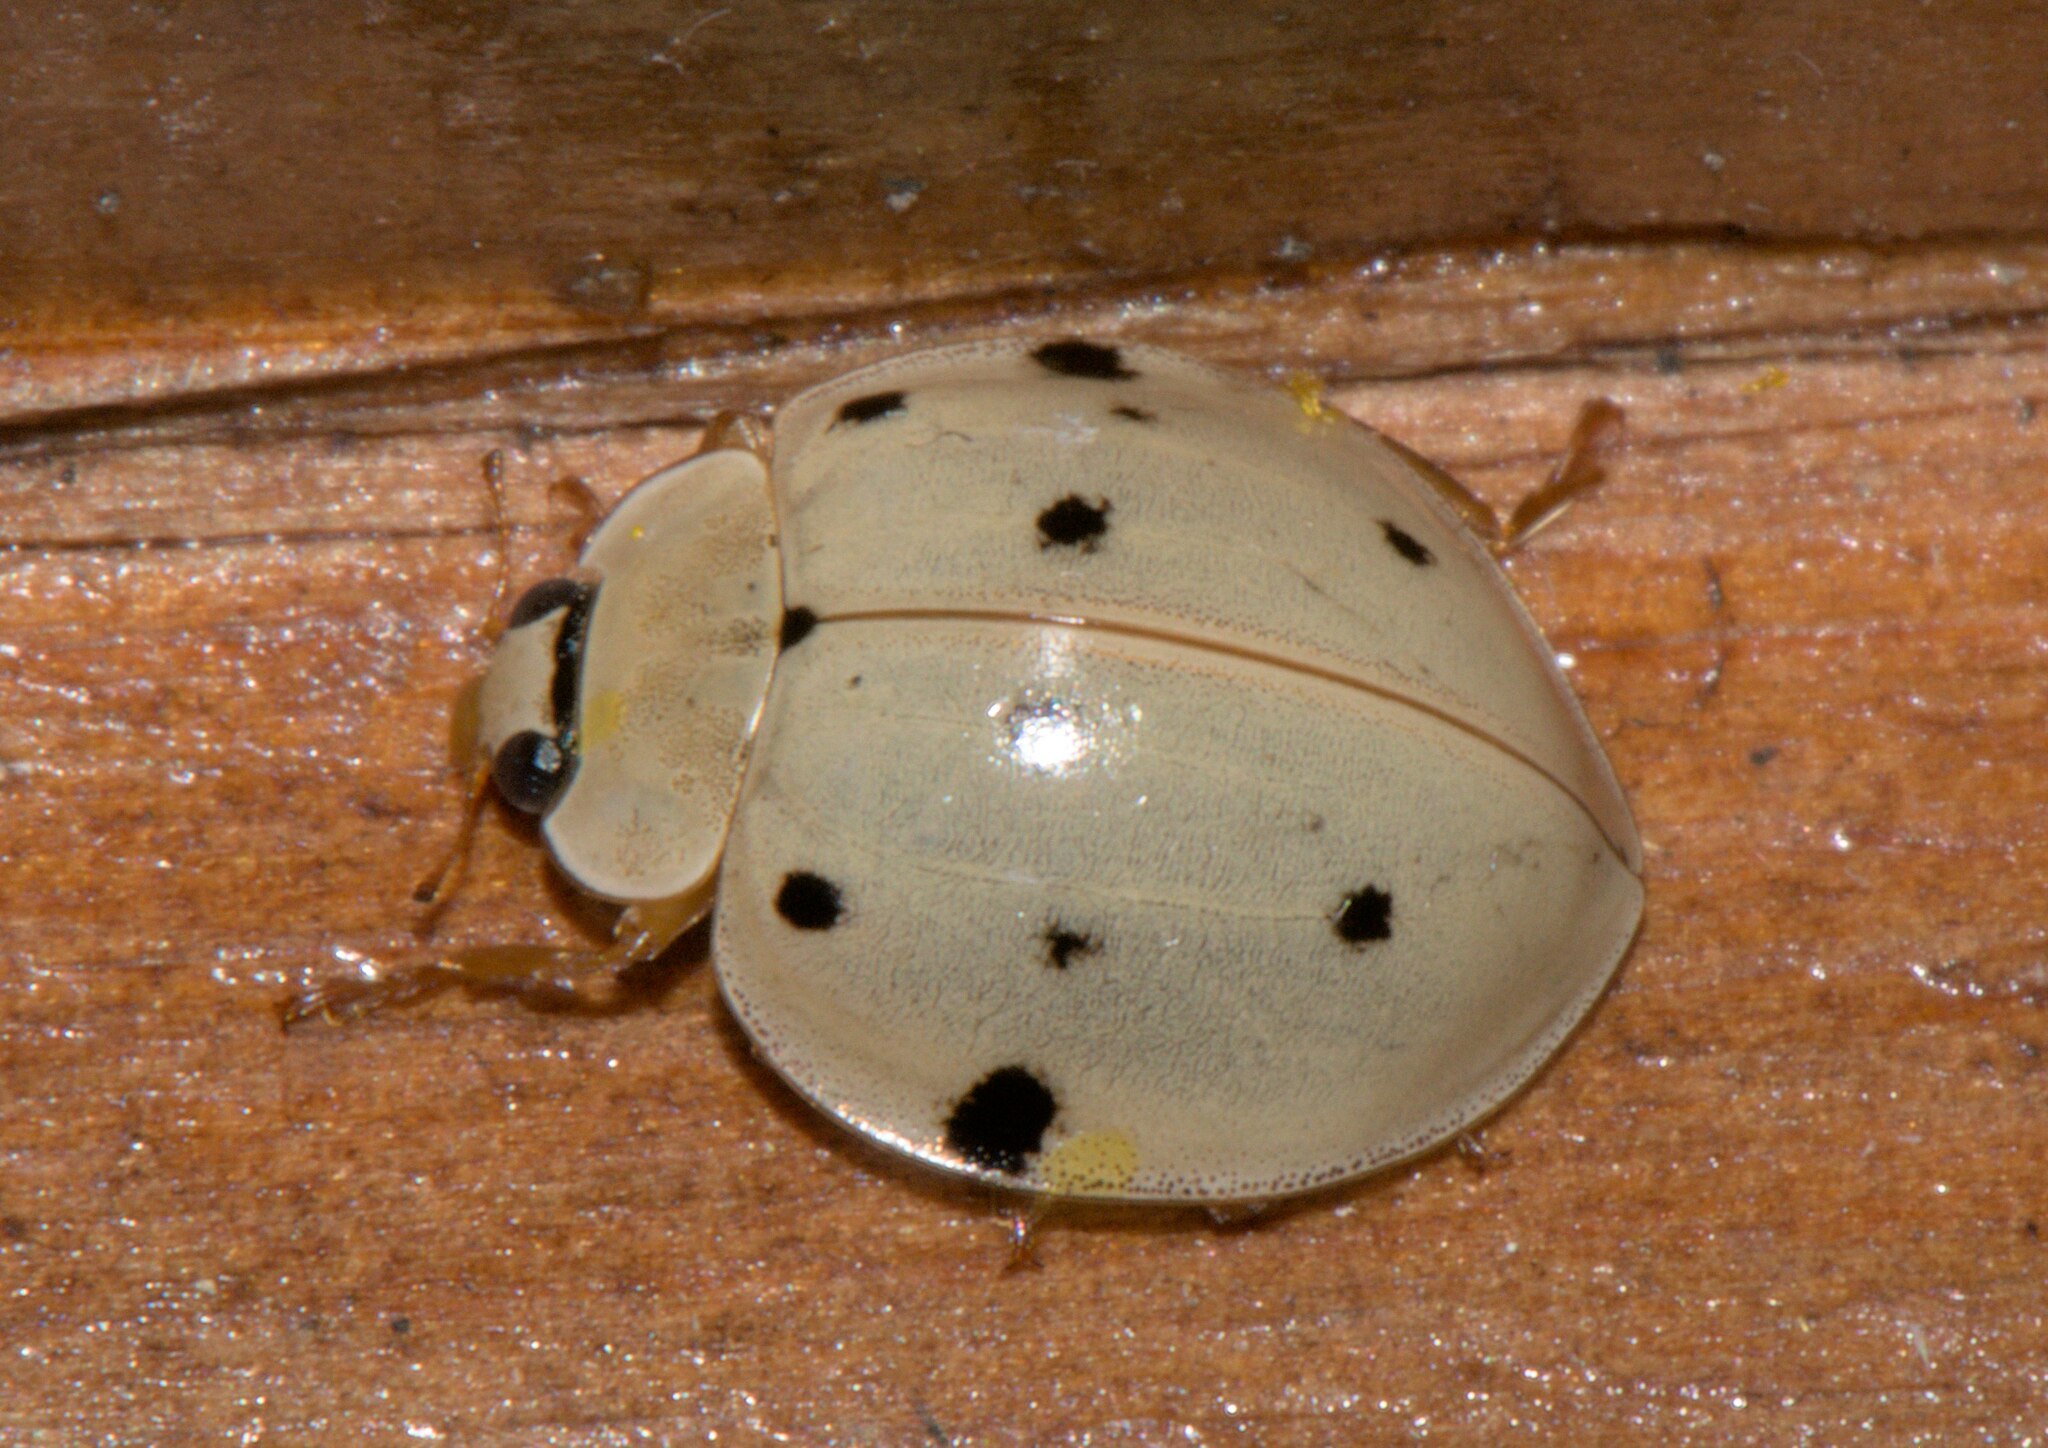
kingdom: Animalia
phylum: Arthropoda
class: Insecta
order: Coleoptera
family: Coccinellidae
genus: Harmonia
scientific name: Harmonia eucharis
